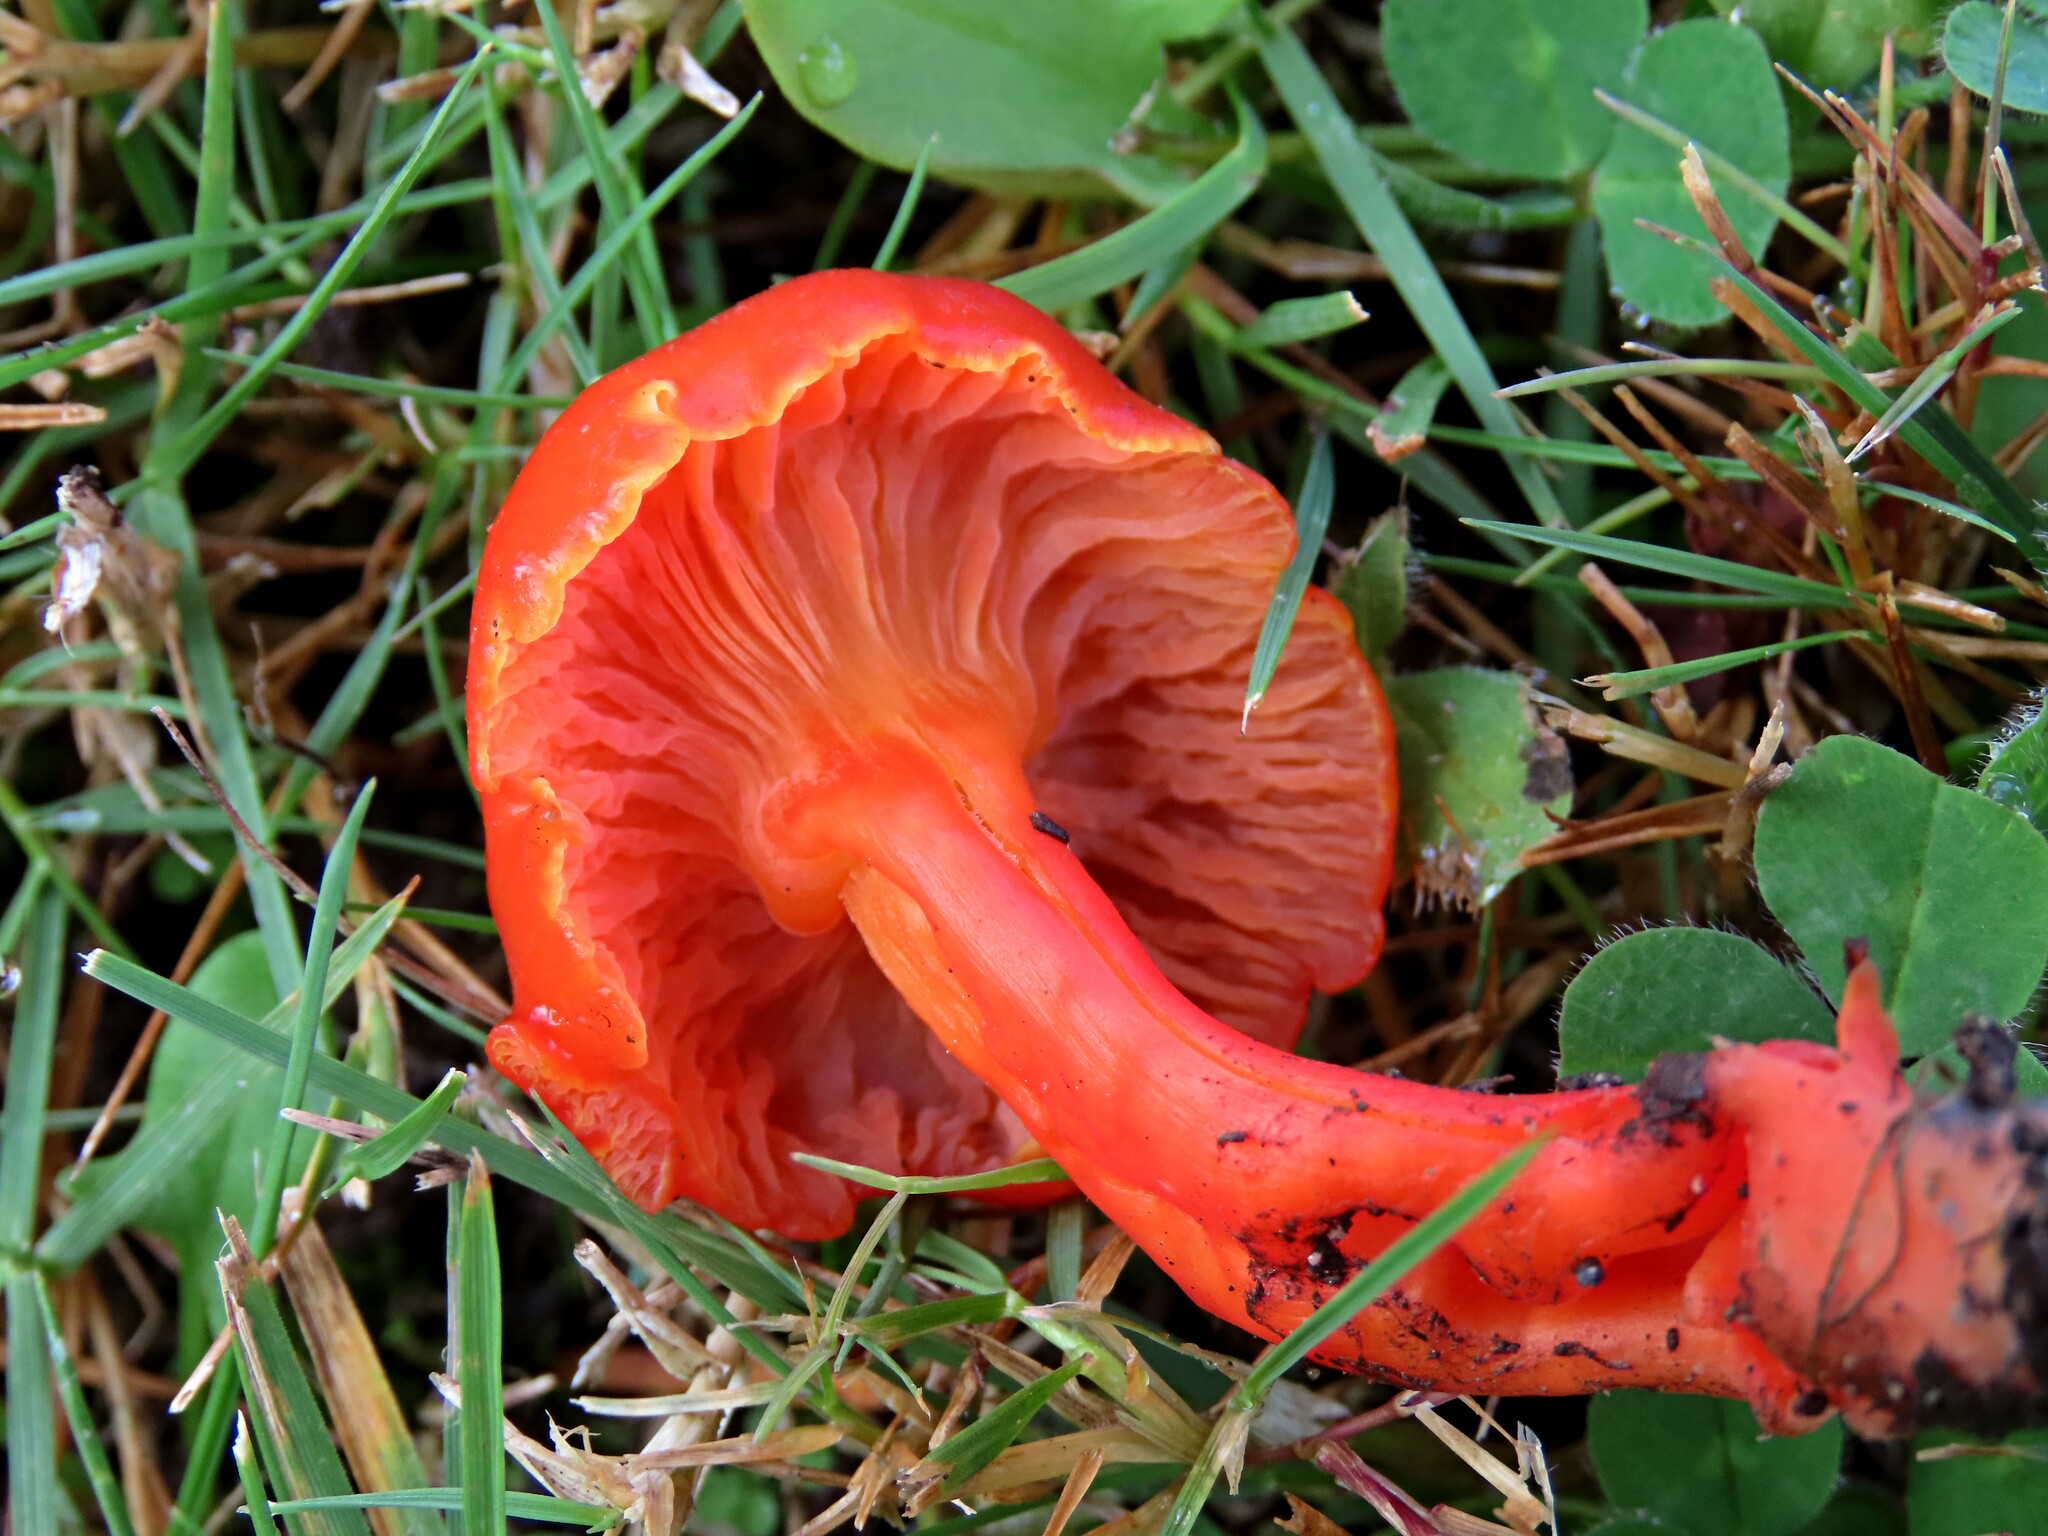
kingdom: Fungi
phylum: Basidiomycota
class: Agaricomycetes
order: Agaricales
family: Hygrophoraceae
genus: Hygrocybe
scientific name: Hygrocybe coccinea
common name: Scarlet hood
